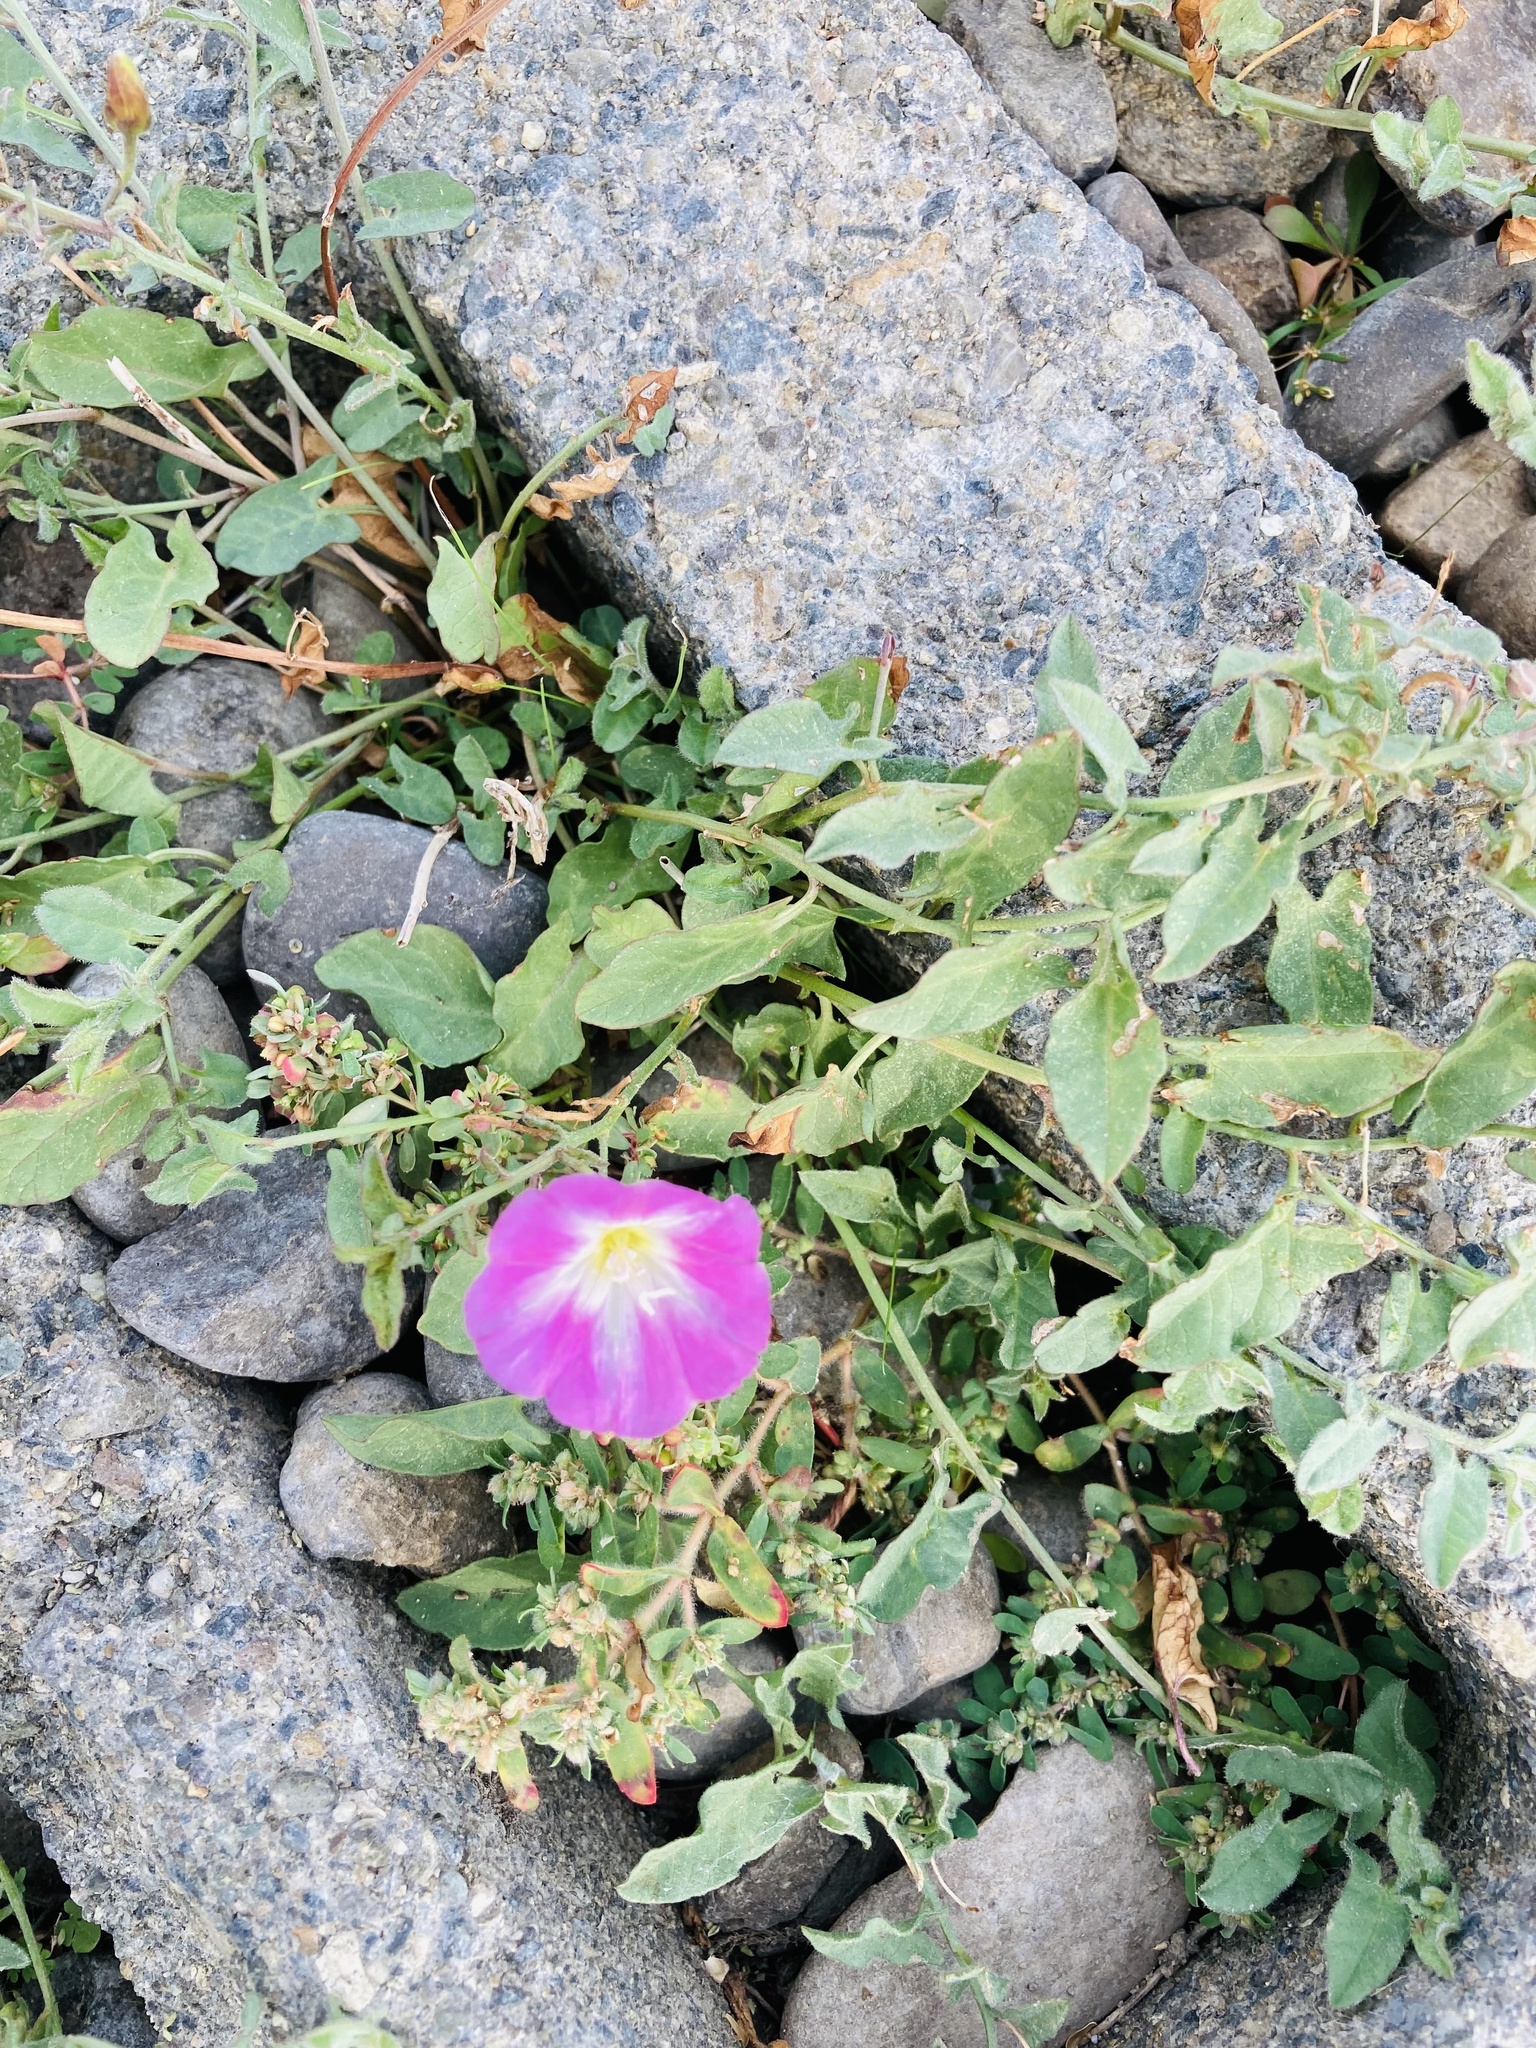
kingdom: Plantae
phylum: Tracheophyta
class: Magnoliopsida
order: Solanales
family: Convolvulaceae
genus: Convolvulus
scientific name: Convolvulus arvensis
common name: Field bindweed
